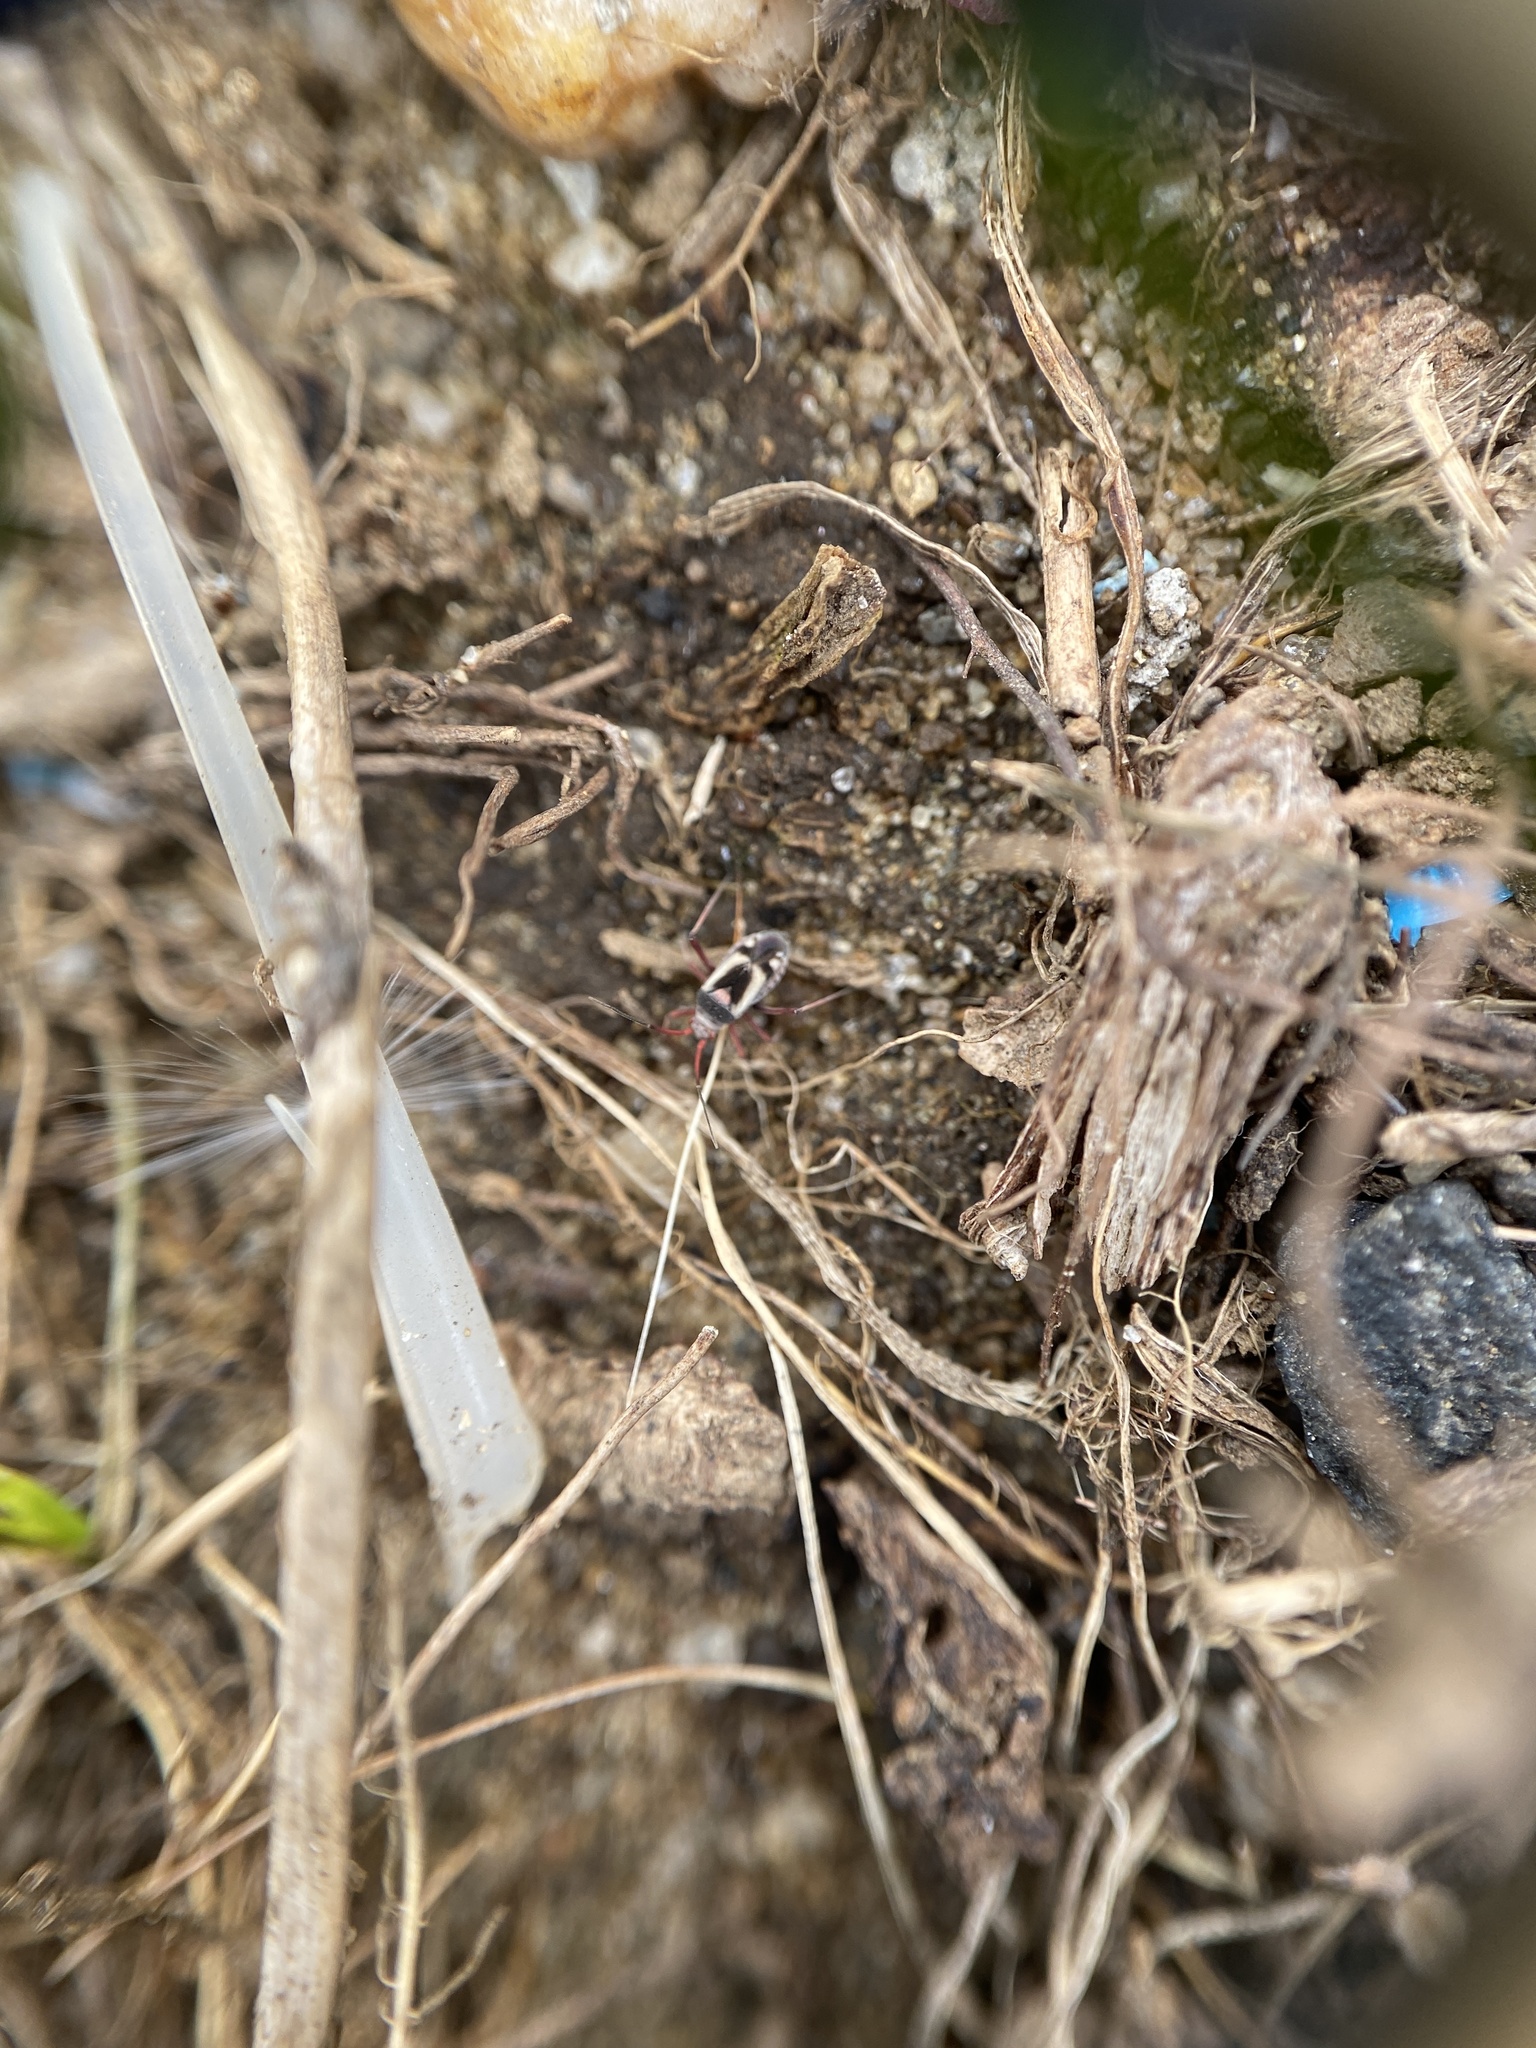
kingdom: Animalia
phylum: Arthropoda
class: Insecta
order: Hemiptera
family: Miridae
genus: Semium
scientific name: Semium hirtum
